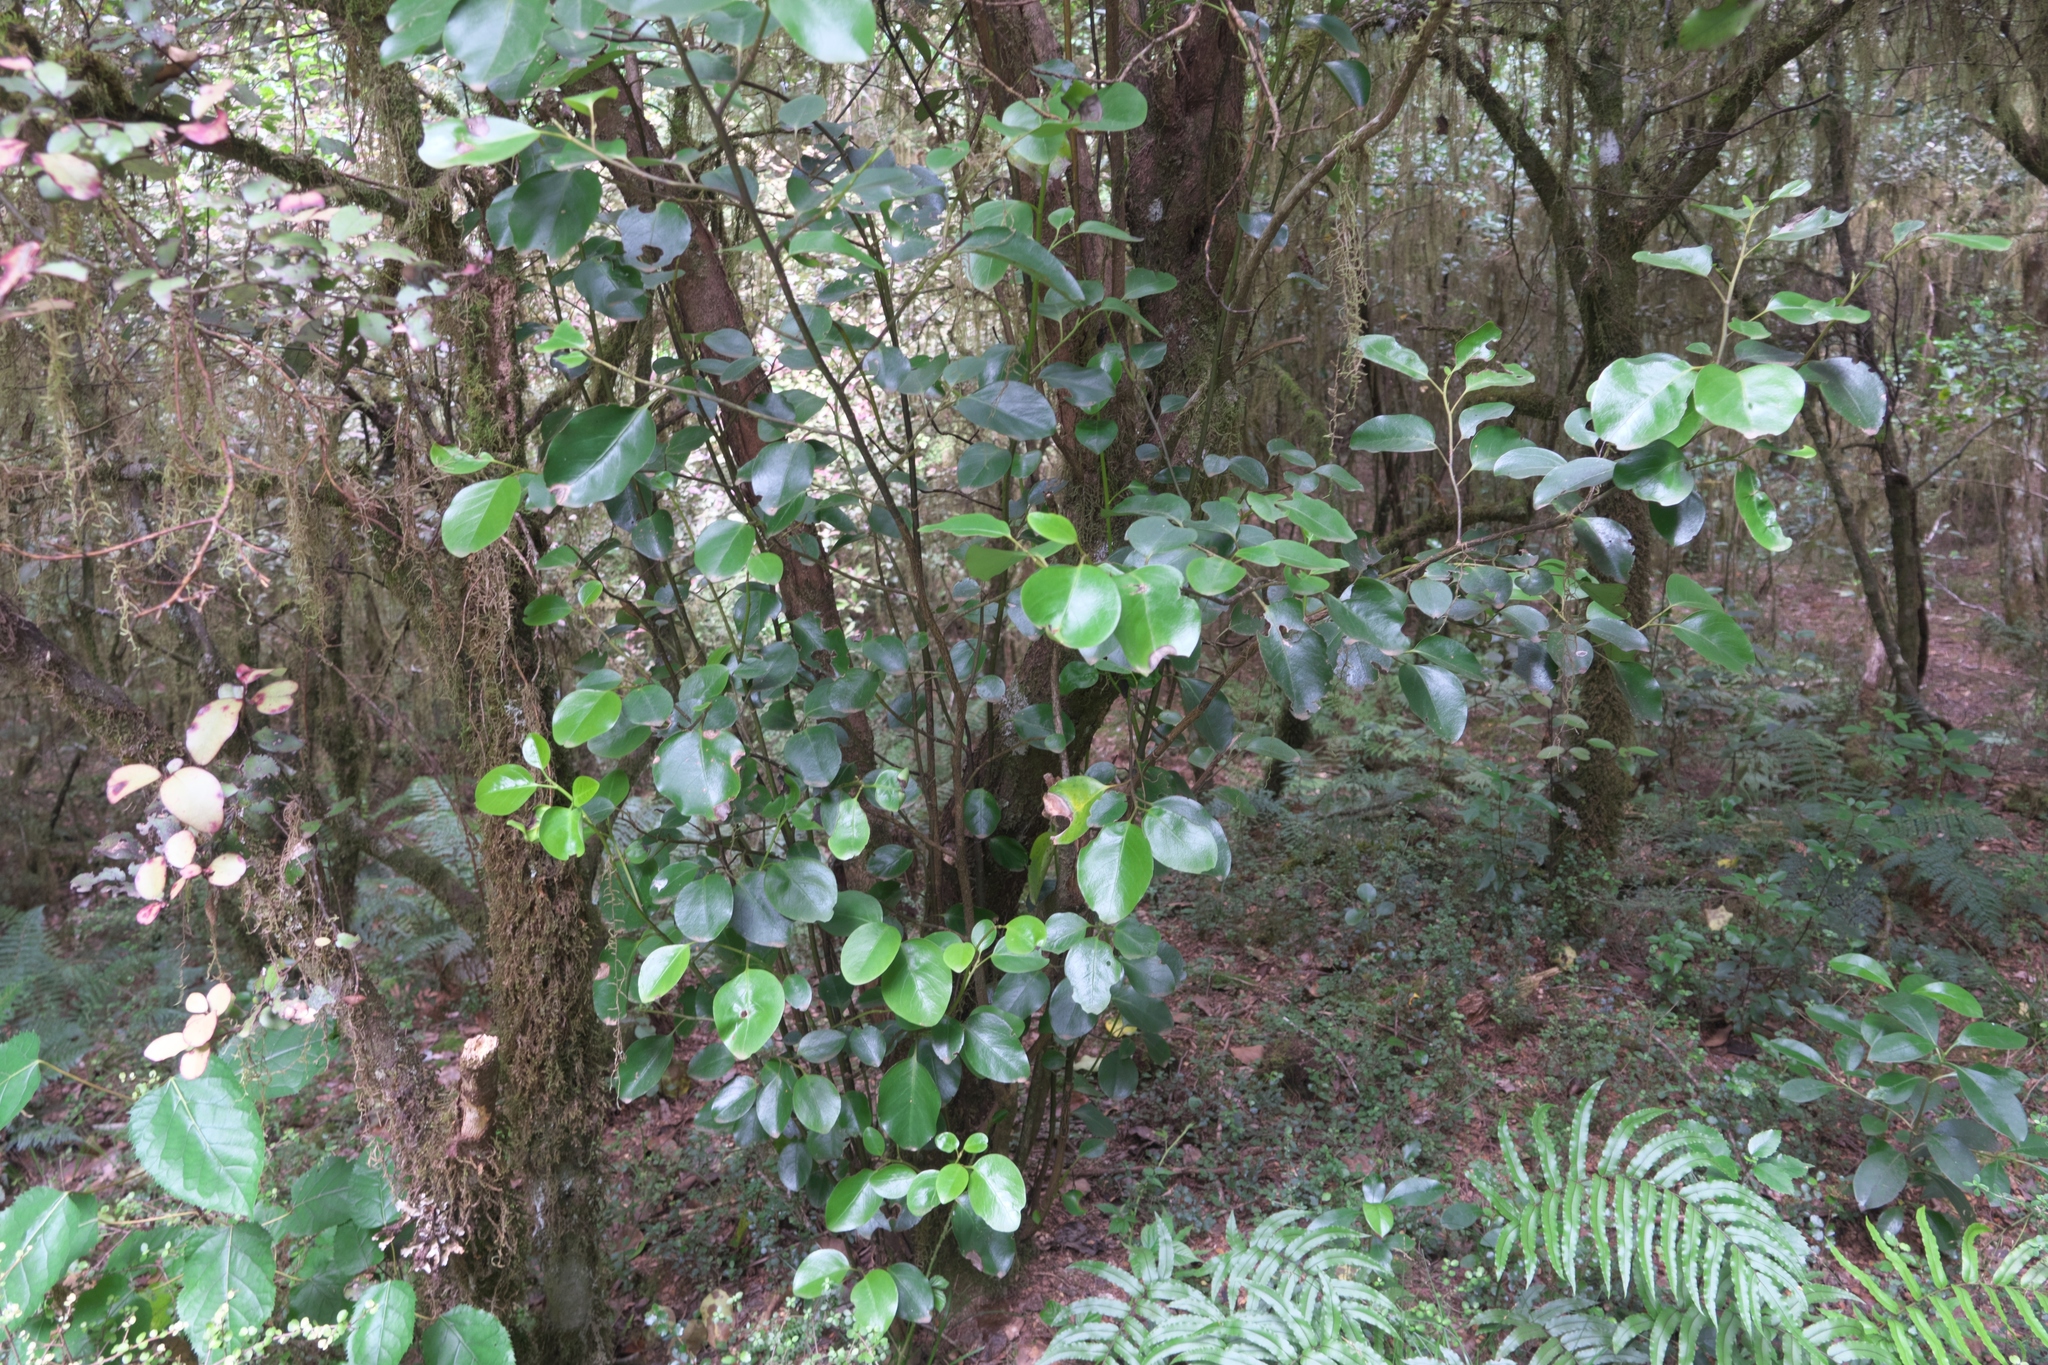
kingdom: Plantae
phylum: Tracheophyta
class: Magnoliopsida
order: Apiales
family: Griseliniaceae
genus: Griselinia
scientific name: Griselinia littoralis
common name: New zealand broadleaf
